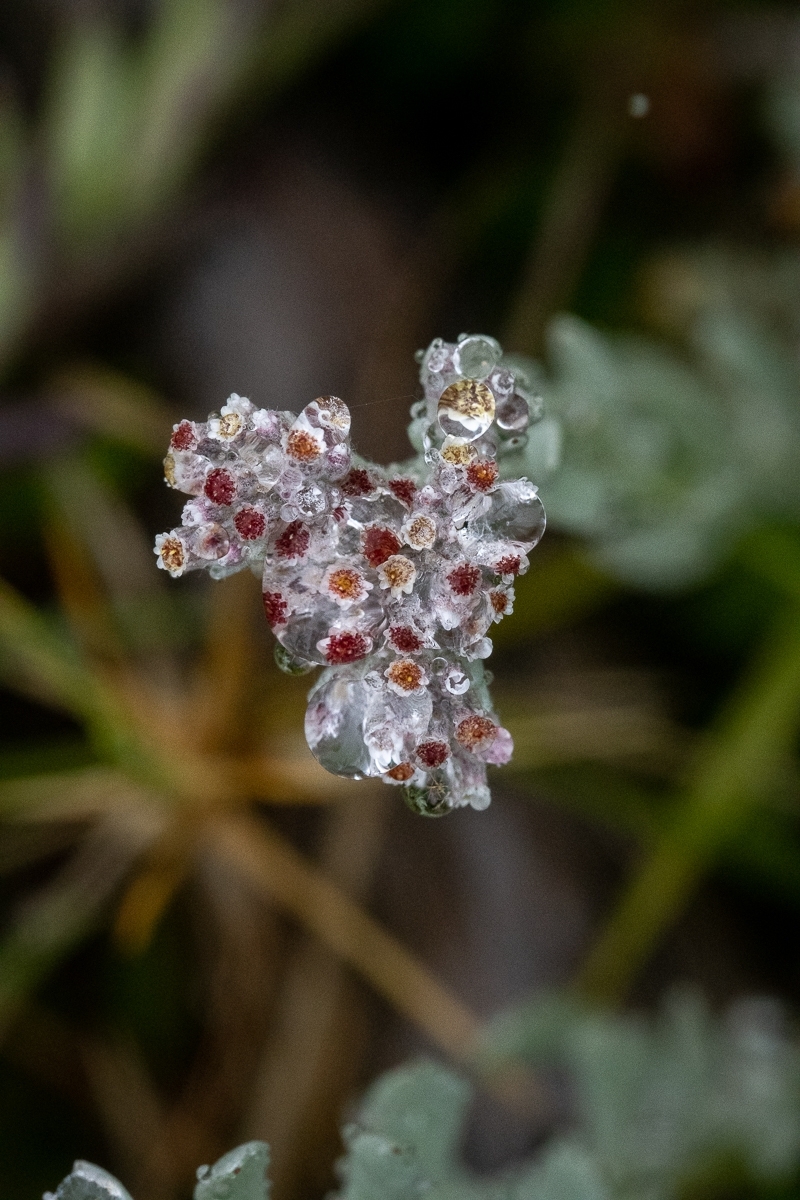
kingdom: Plantae
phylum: Tracheophyta
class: Magnoliopsida
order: Asterales
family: Asteraceae
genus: Vellereophyton
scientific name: Vellereophyton dealbatum
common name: White-cudweed
